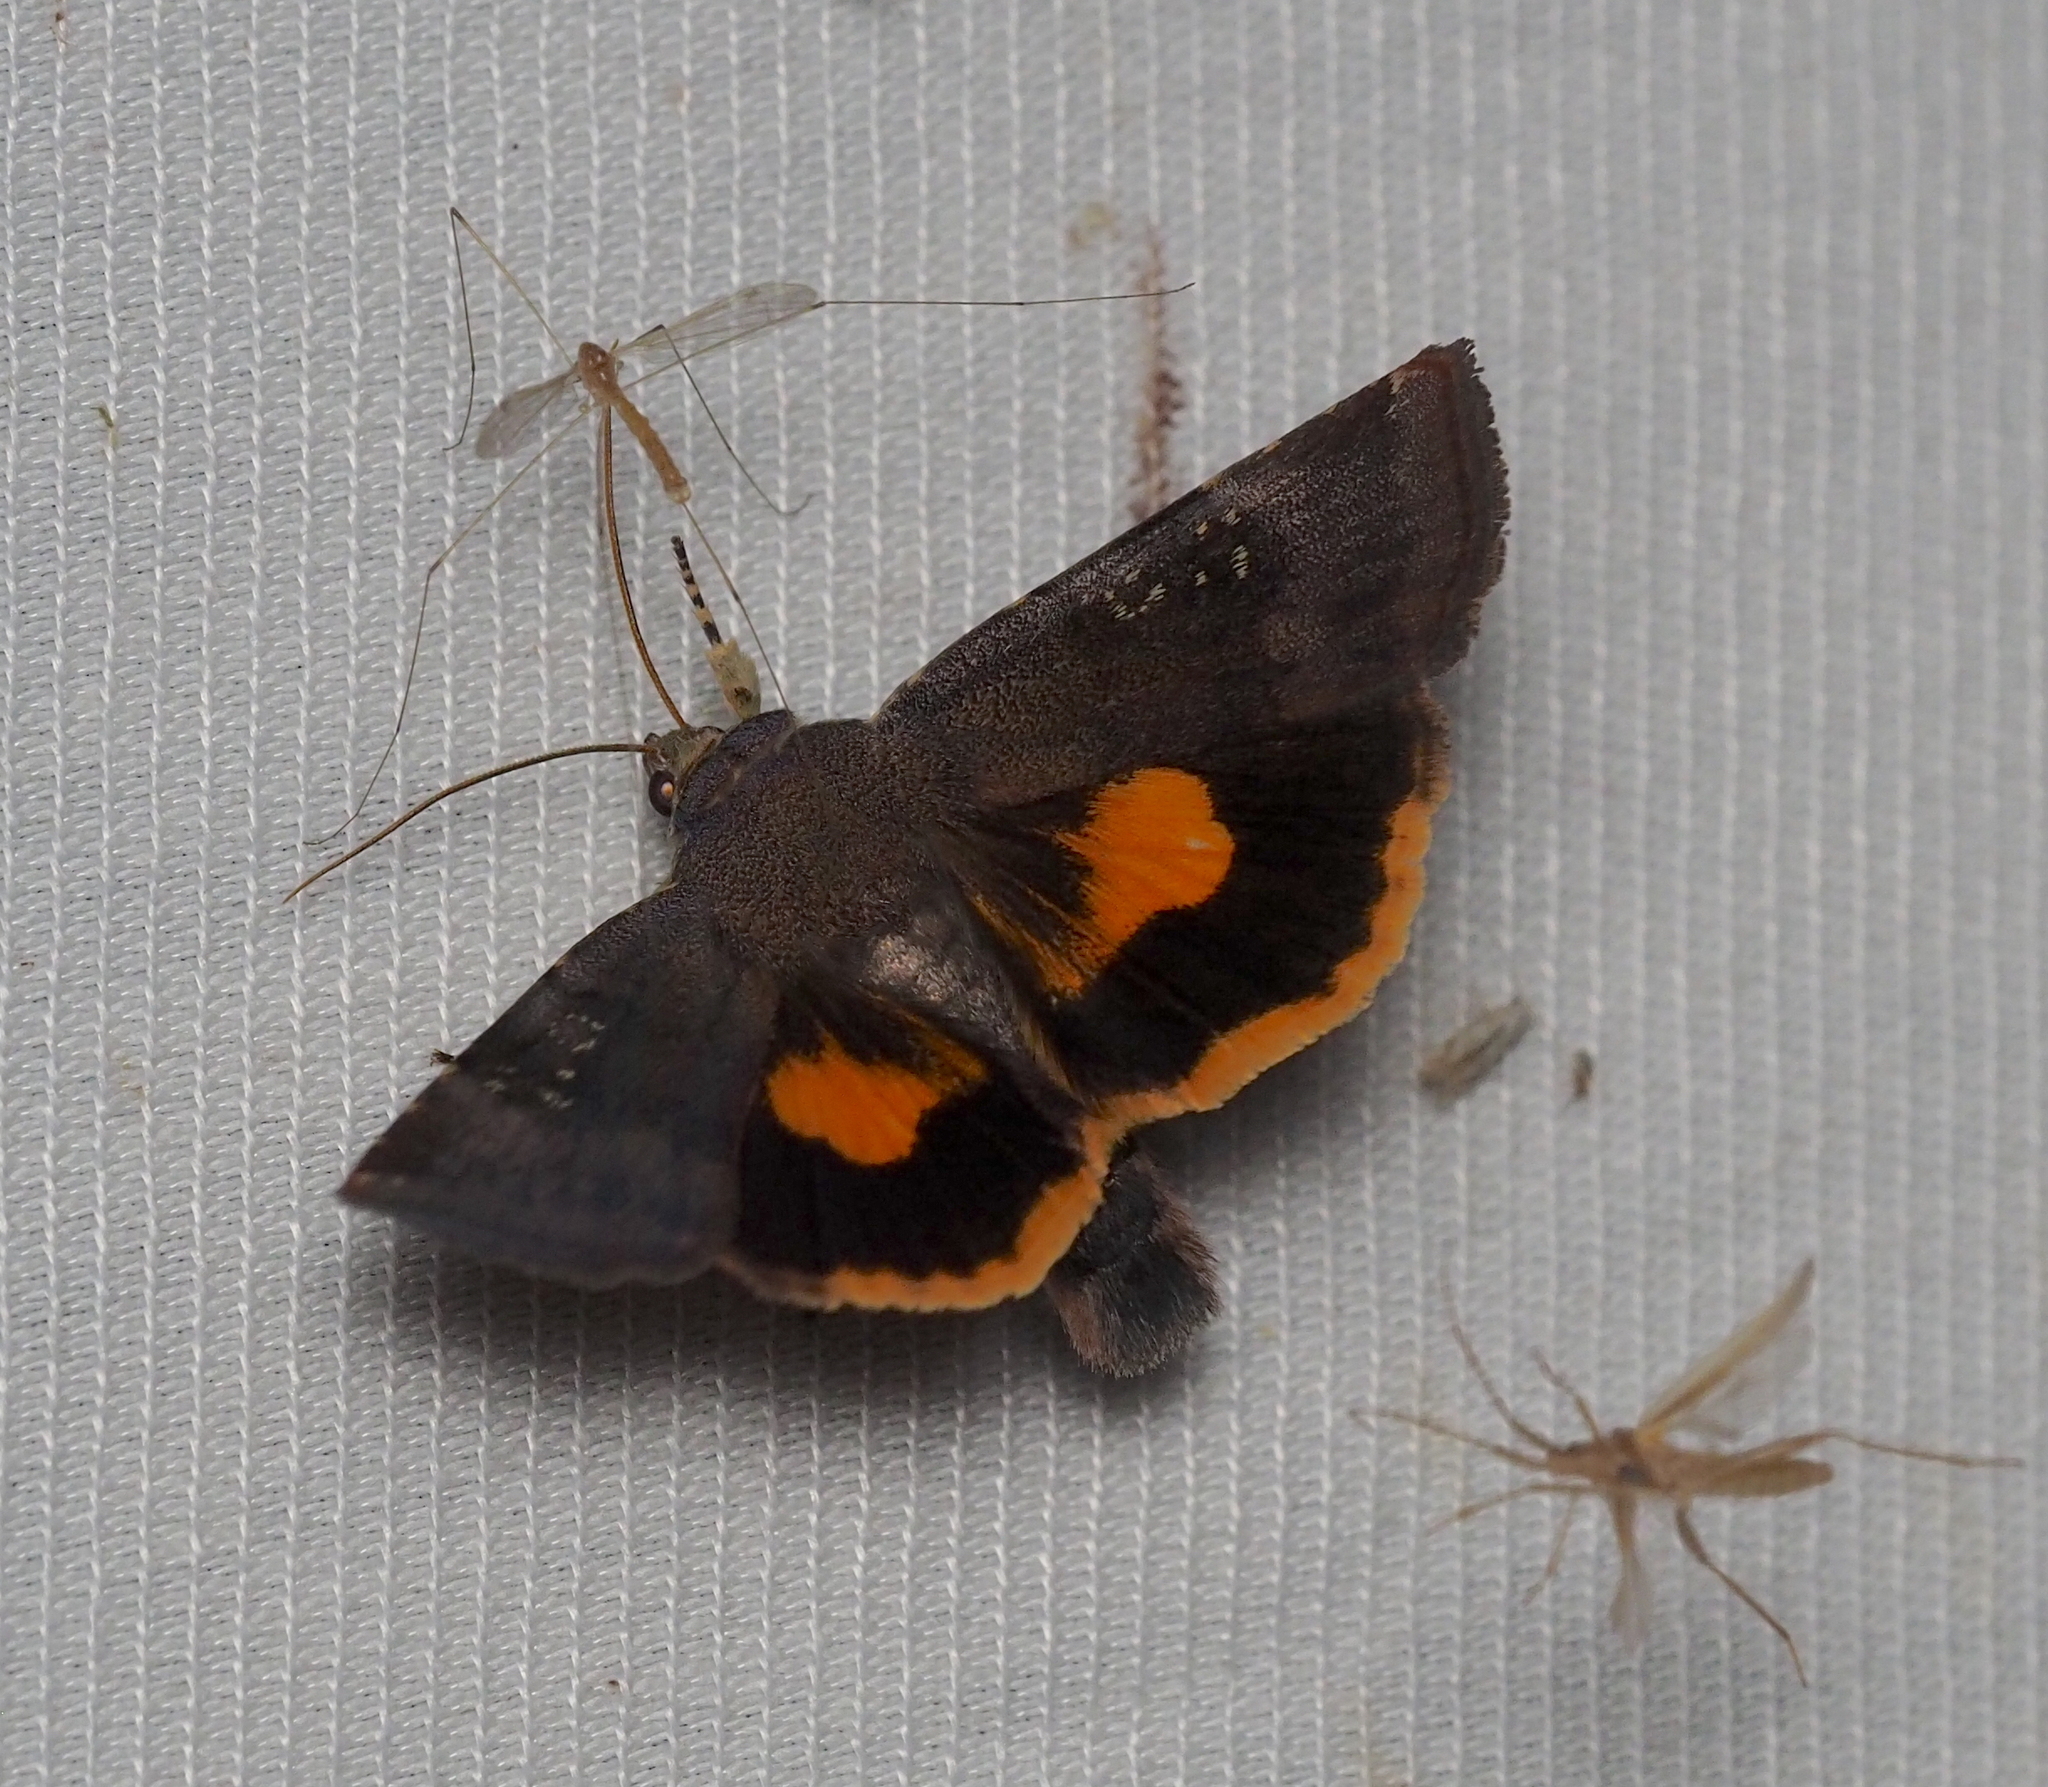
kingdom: Animalia
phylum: Arthropoda
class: Insecta
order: Lepidoptera
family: Noctuidae
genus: Noctua
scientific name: Noctua janthina
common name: Langmaid's yellow underwing
